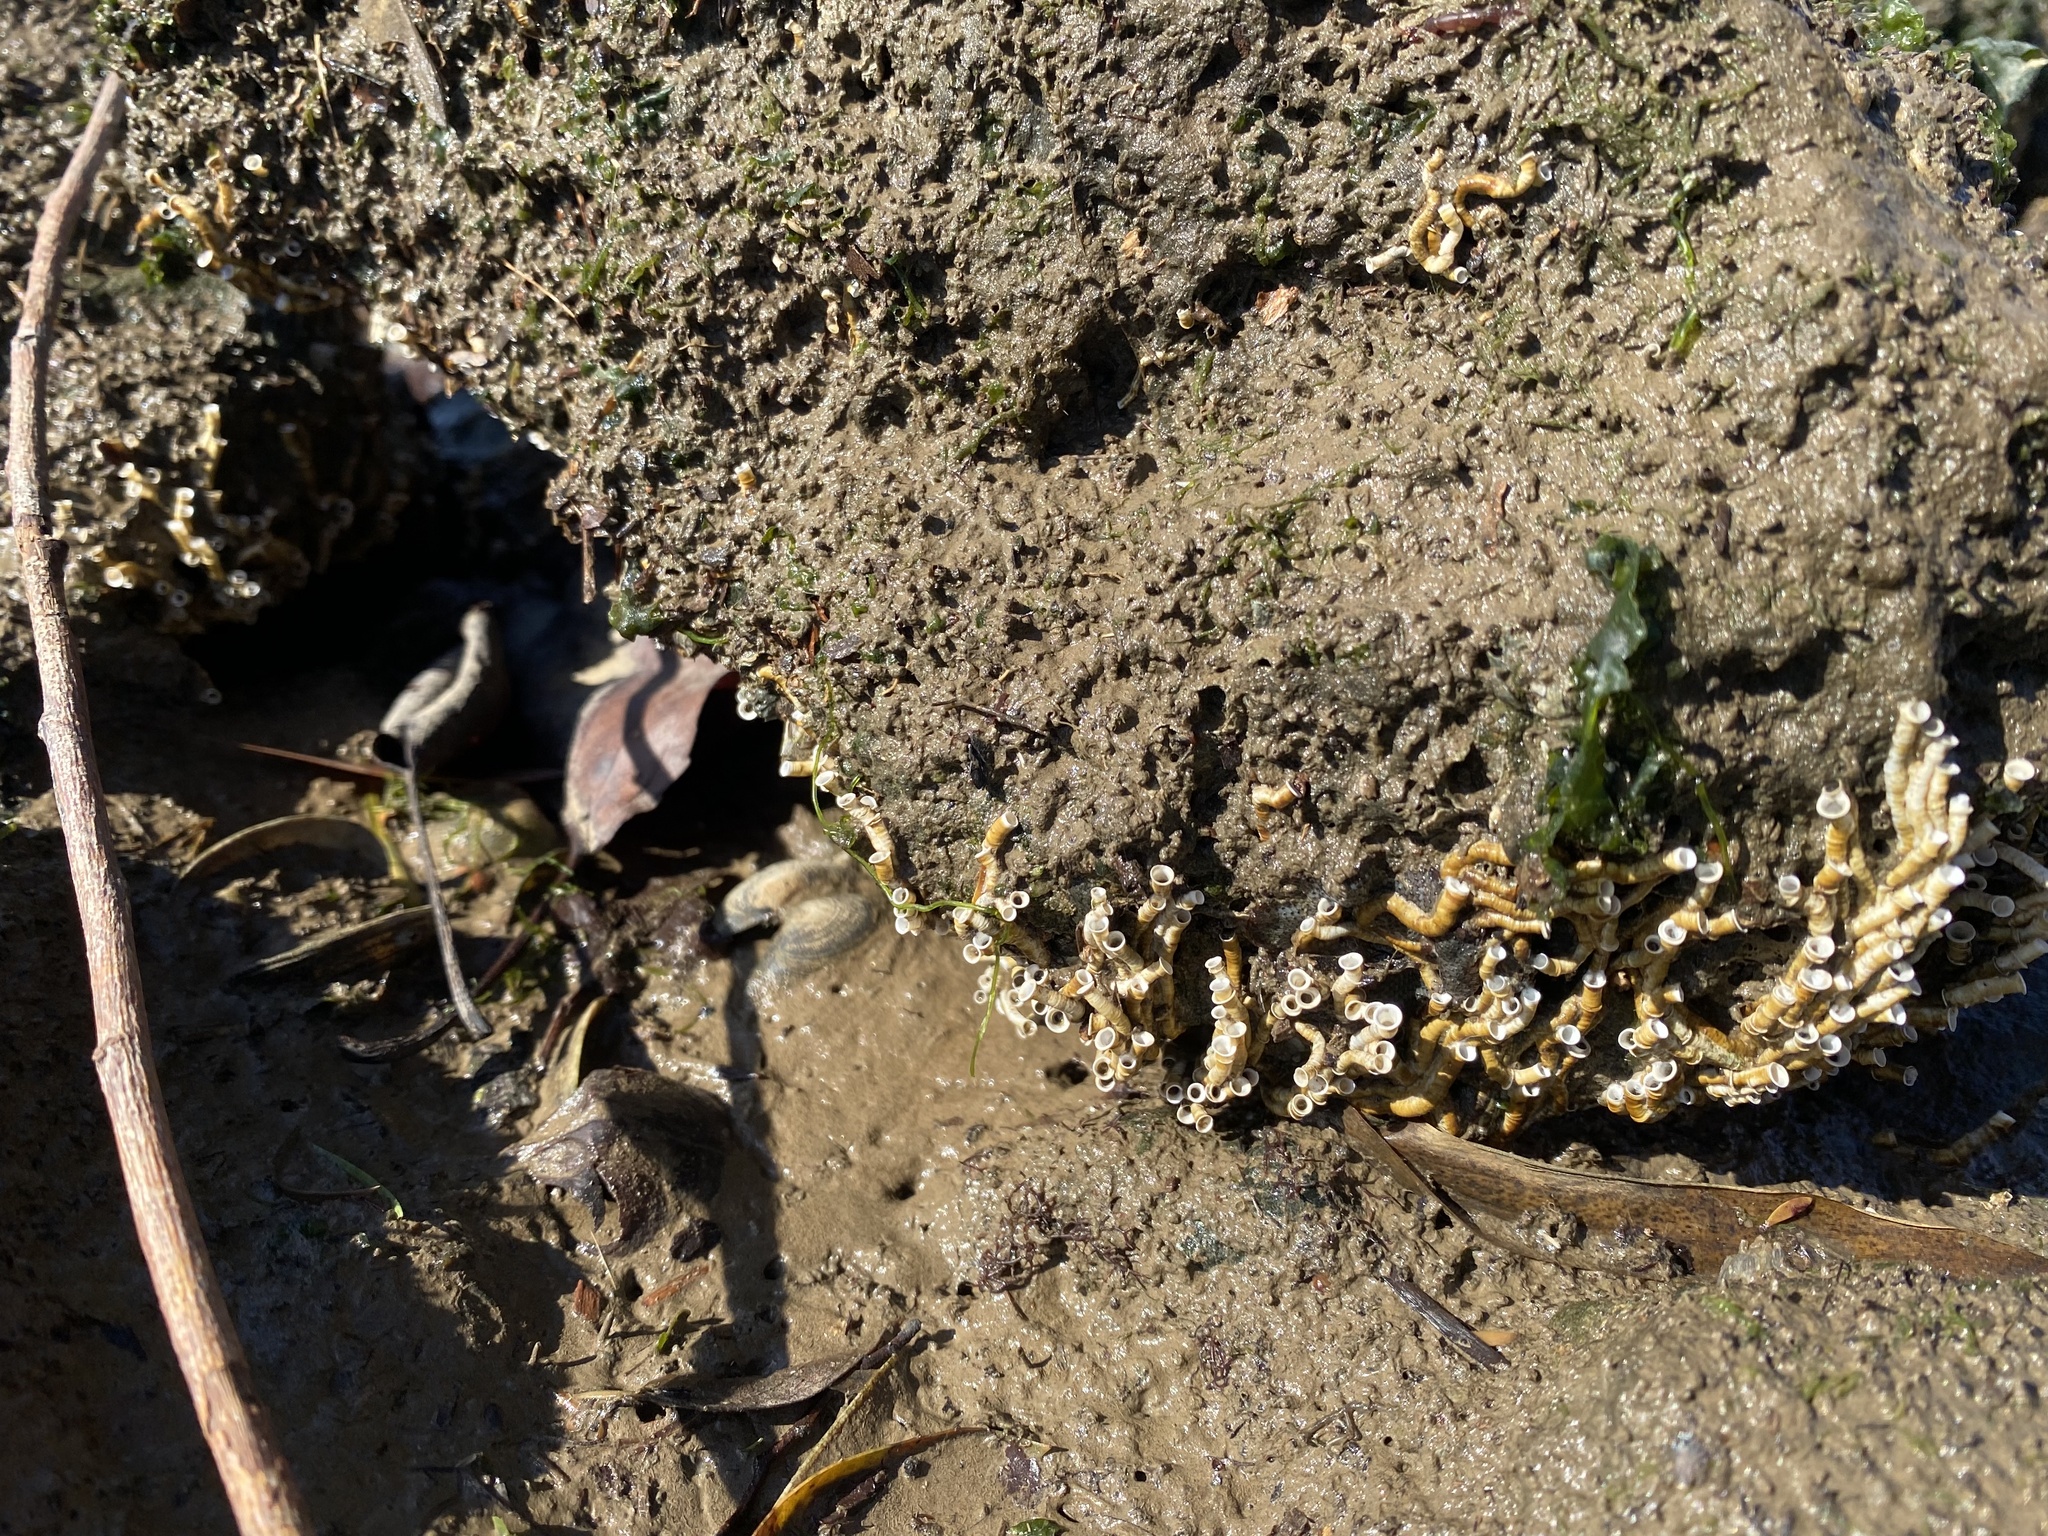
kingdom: Animalia
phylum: Annelida
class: Polychaeta
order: Sabellida
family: Serpulidae
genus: Ficopomatus
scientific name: Ficopomatus enigmaticus
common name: Australian tubeworm
